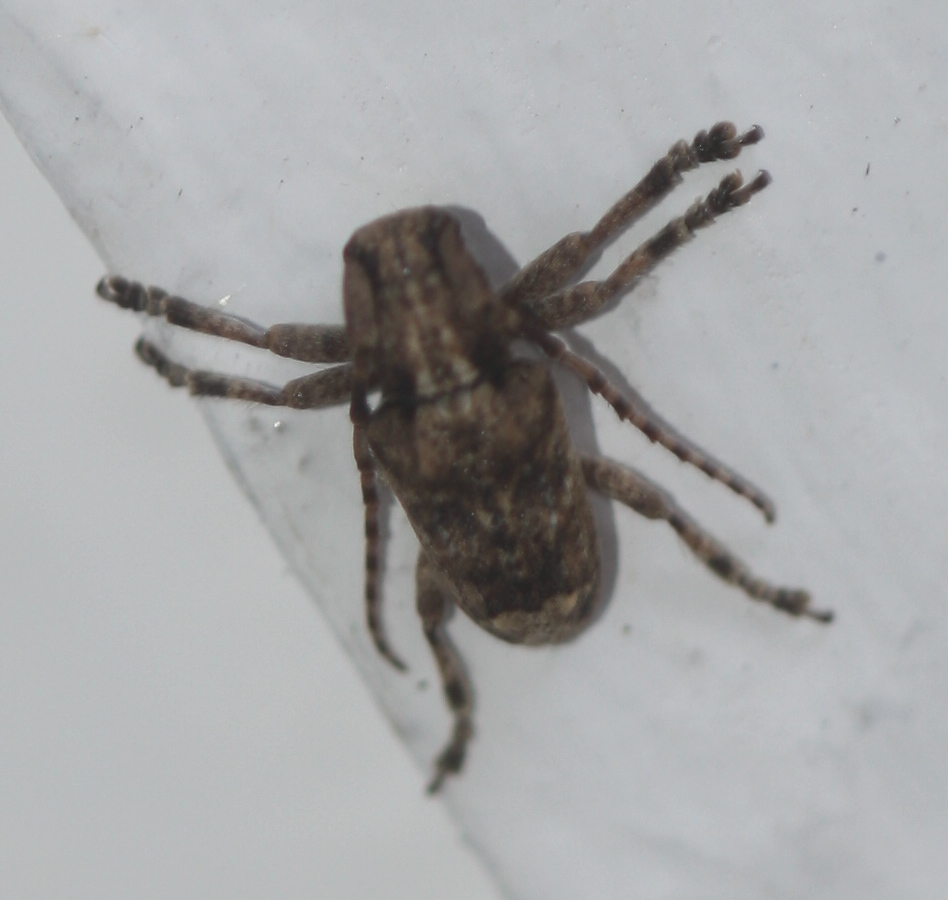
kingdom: Animalia
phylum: Arthropoda
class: Insecta
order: Coleoptera
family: Cerambycidae
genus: Pterolophia
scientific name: Pterolophia bigibbera
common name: Long-horned beetle
